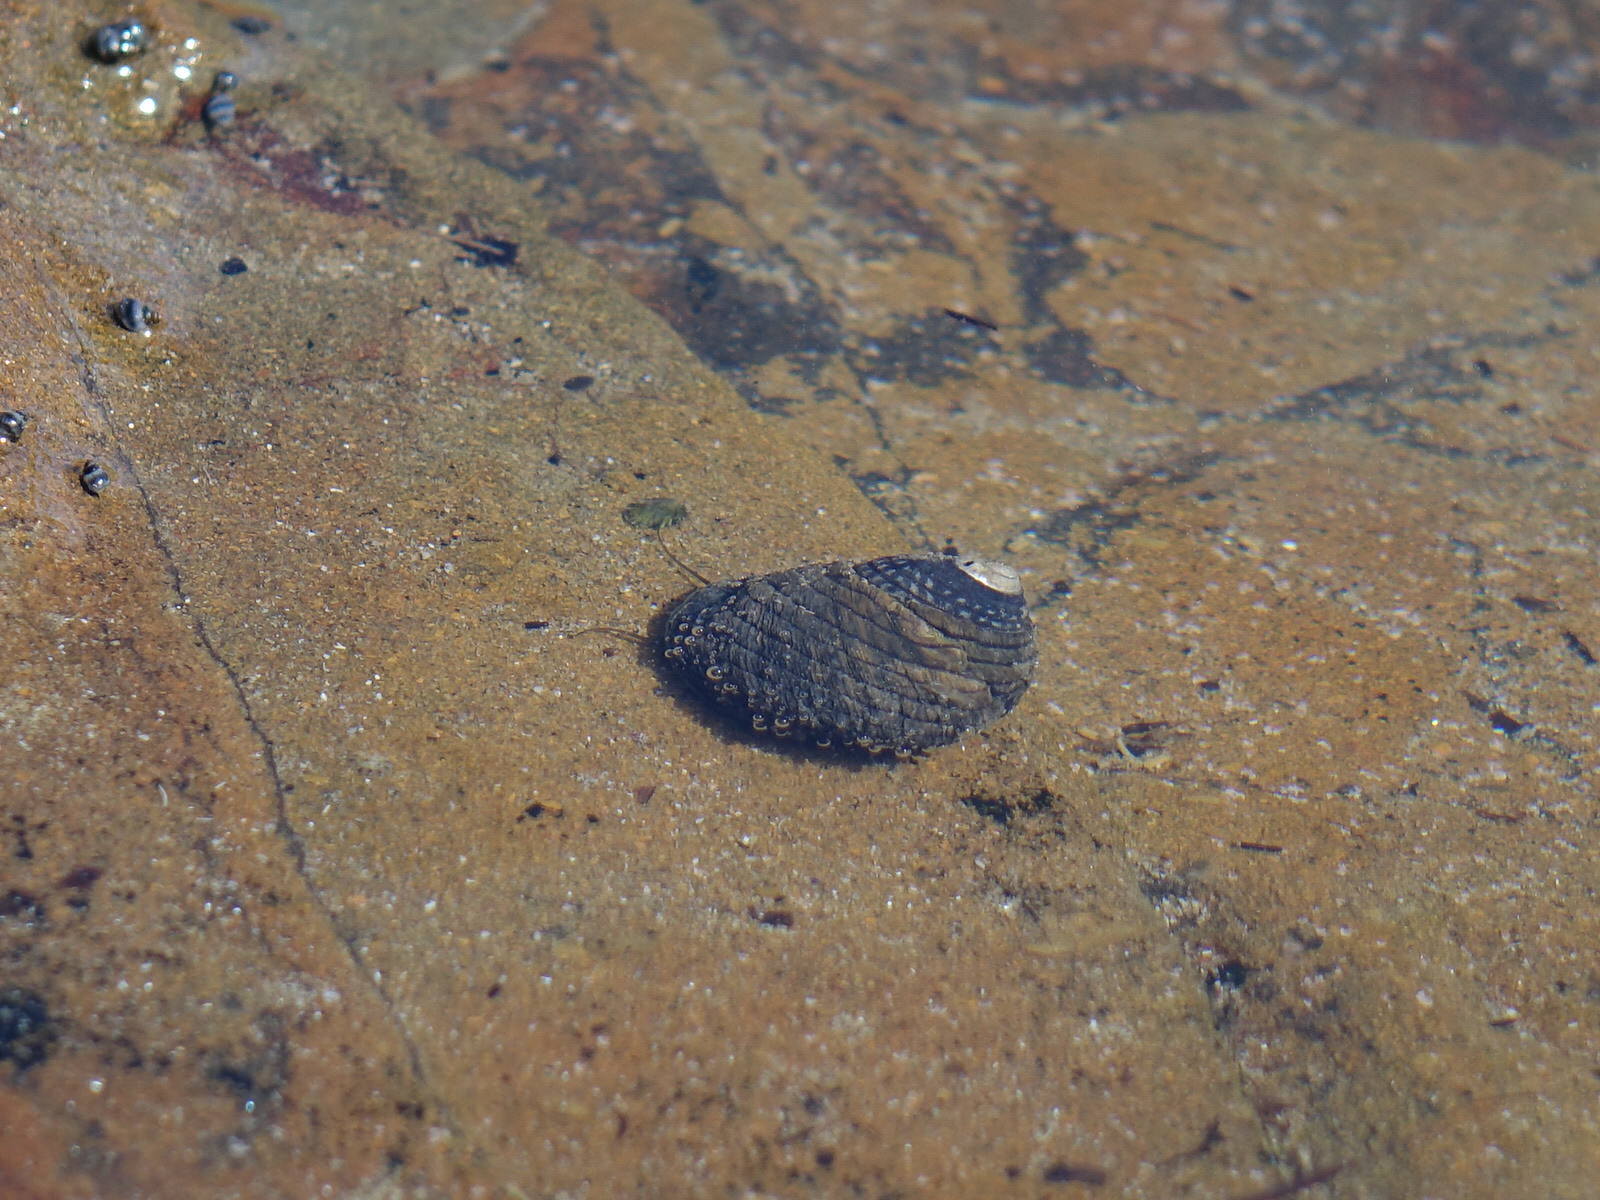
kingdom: Animalia
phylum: Mollusca
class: Gastropoda
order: Trochida
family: Trochidae
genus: Diloma
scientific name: Diloma aethiops
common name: Scorched monodont
